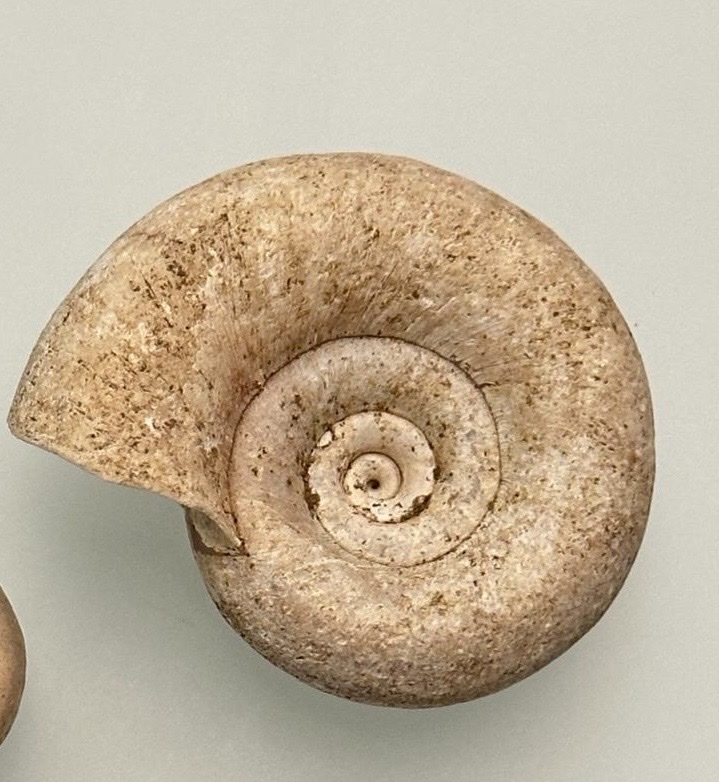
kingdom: Animalia
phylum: Mollusca
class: Gastropoda
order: Architaenioglossa
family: Ampullariidae
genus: Marisa
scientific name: Marisa cornuarietis
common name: Giant ramshorn snail
